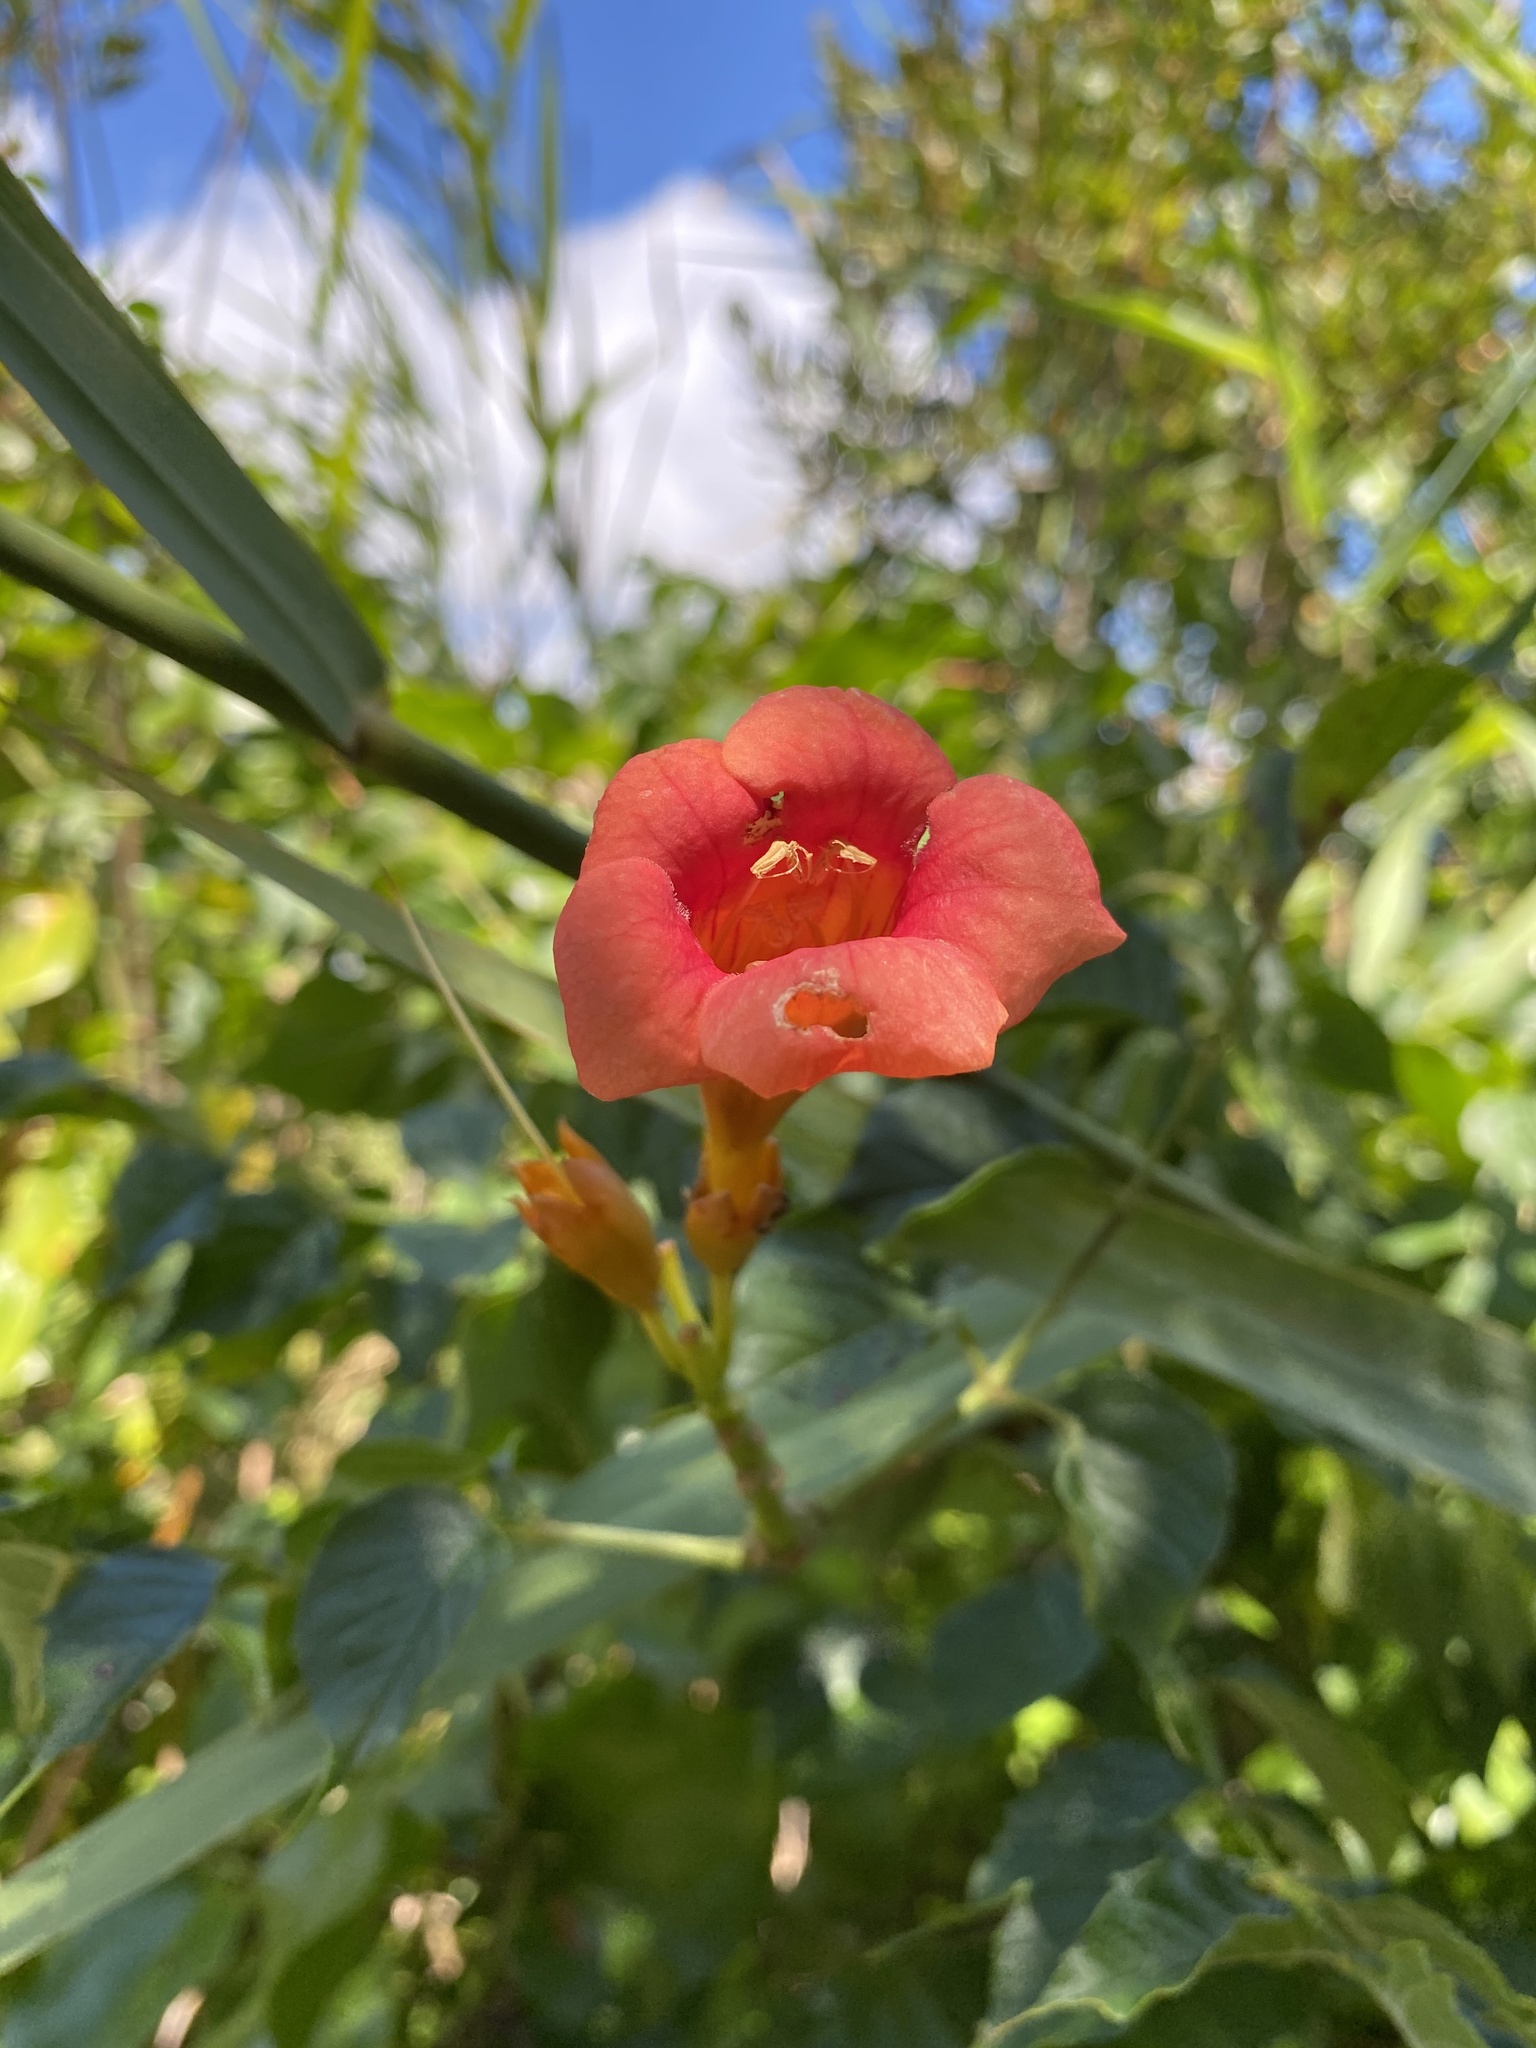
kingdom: Plantae
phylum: Tracheophyta
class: Magnoliopsida
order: Lamiales
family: Bignoniaceae
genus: Campsis
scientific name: Campsis radicans
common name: Trumpet-creeper
